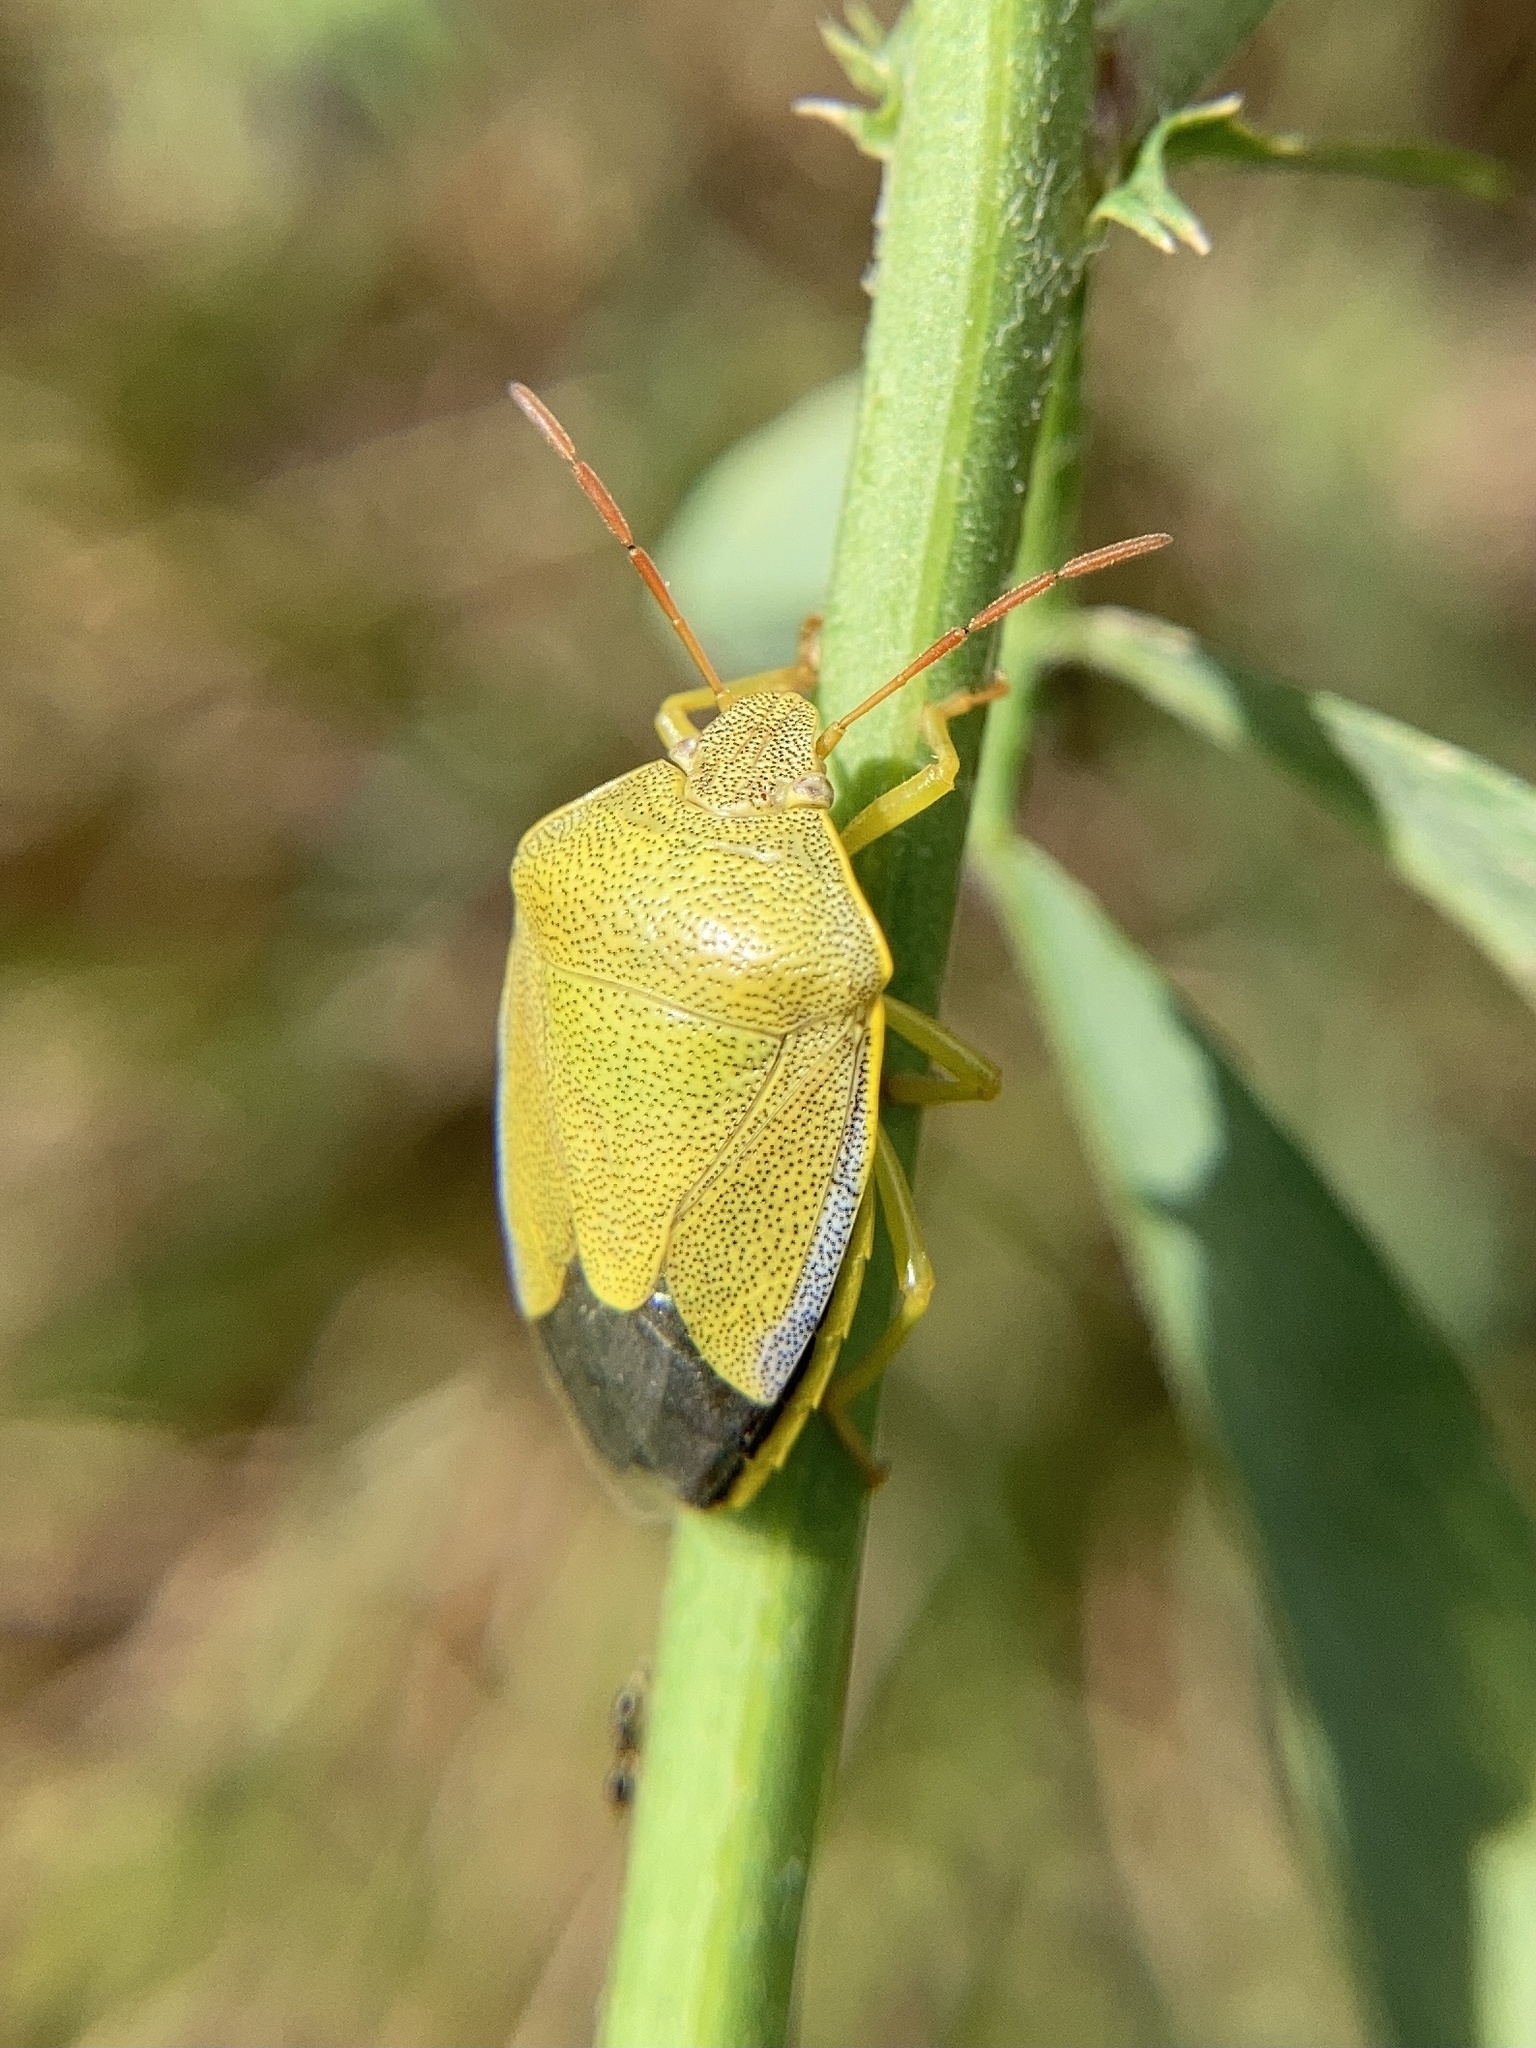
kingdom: Animalia
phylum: Arthropoda
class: Insecta
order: Hemiptera
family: Pentatomidae
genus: Piezodorus
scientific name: Piezodorus lituratus
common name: Stink bug
